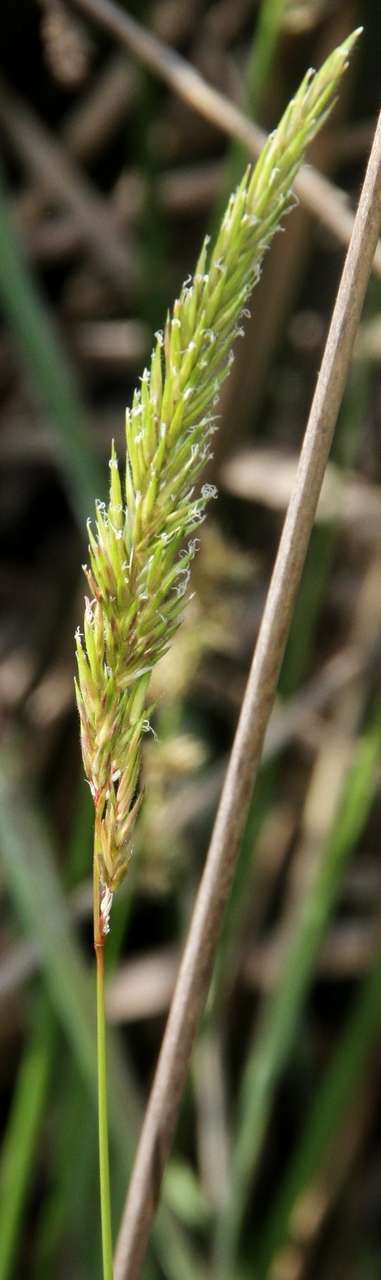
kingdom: Plantae
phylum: Tracheophyta
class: Liliopsida
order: Poales
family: Poaceae
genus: Anthoxanthum
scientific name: Anthoxanthum odoratum
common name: Sweet vernalgrass
